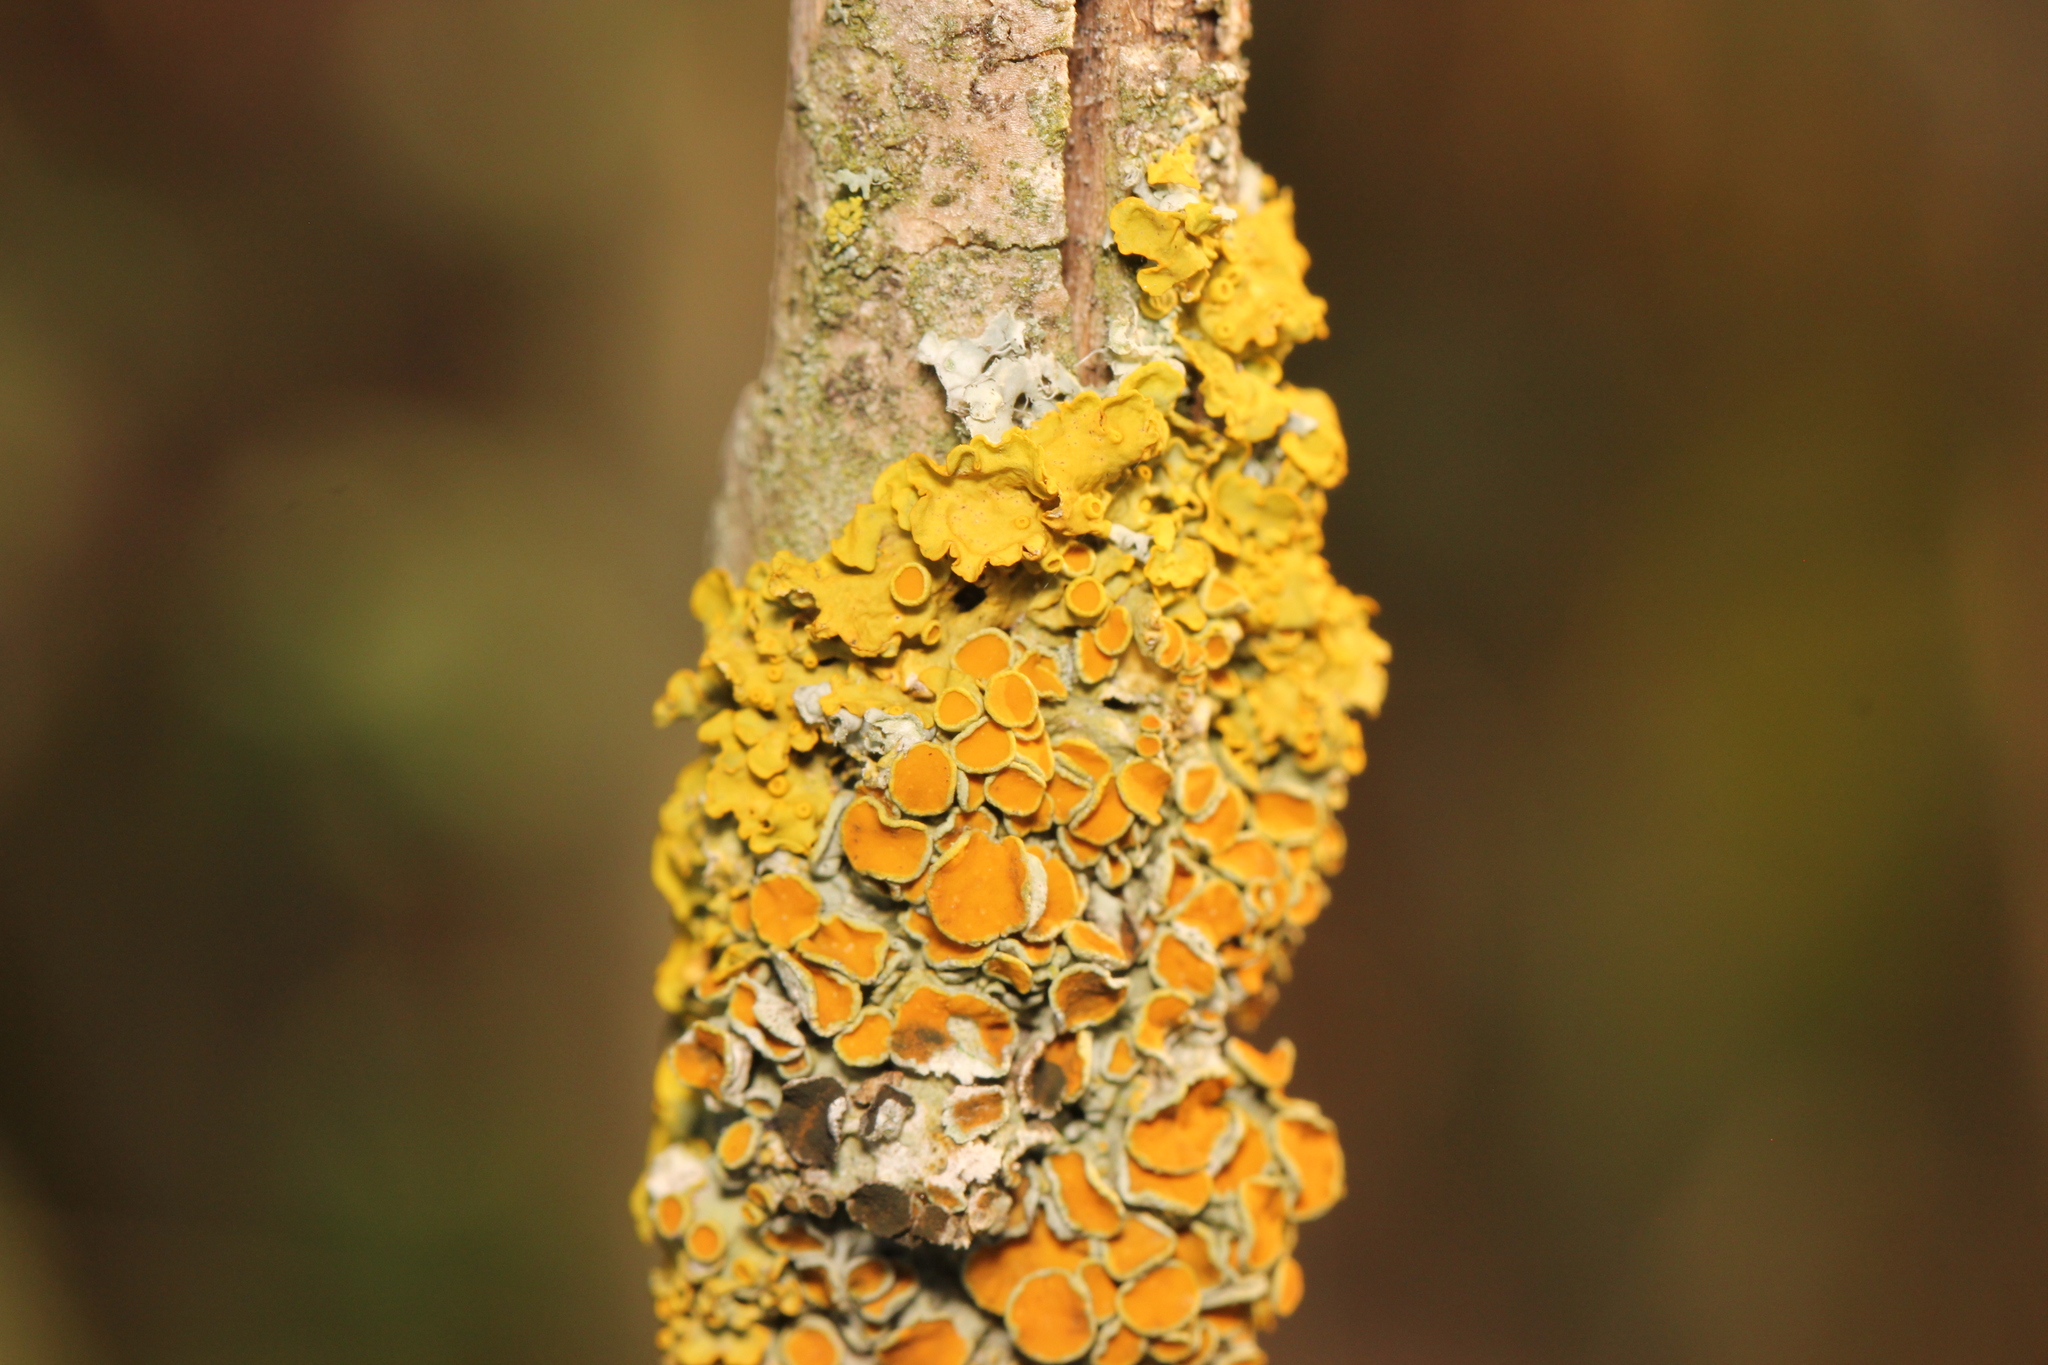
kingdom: Fungi
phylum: Ascomycota
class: Dothideomycetes
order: Mycosphaerellales
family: Teratosphaeriaceae
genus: Xanthoriicola
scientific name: Xanthoriicola physciae
